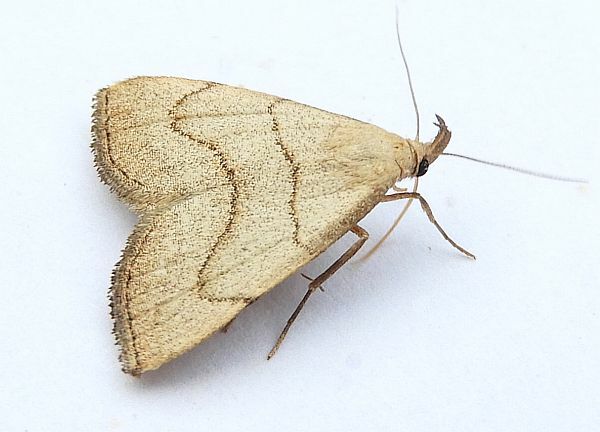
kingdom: Animalia
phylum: Arthropoda
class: Insecta
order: Lepidoptera
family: Erebidae
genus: Macrochilo
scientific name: Macrochilo litophora
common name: Brown-lined owlet
